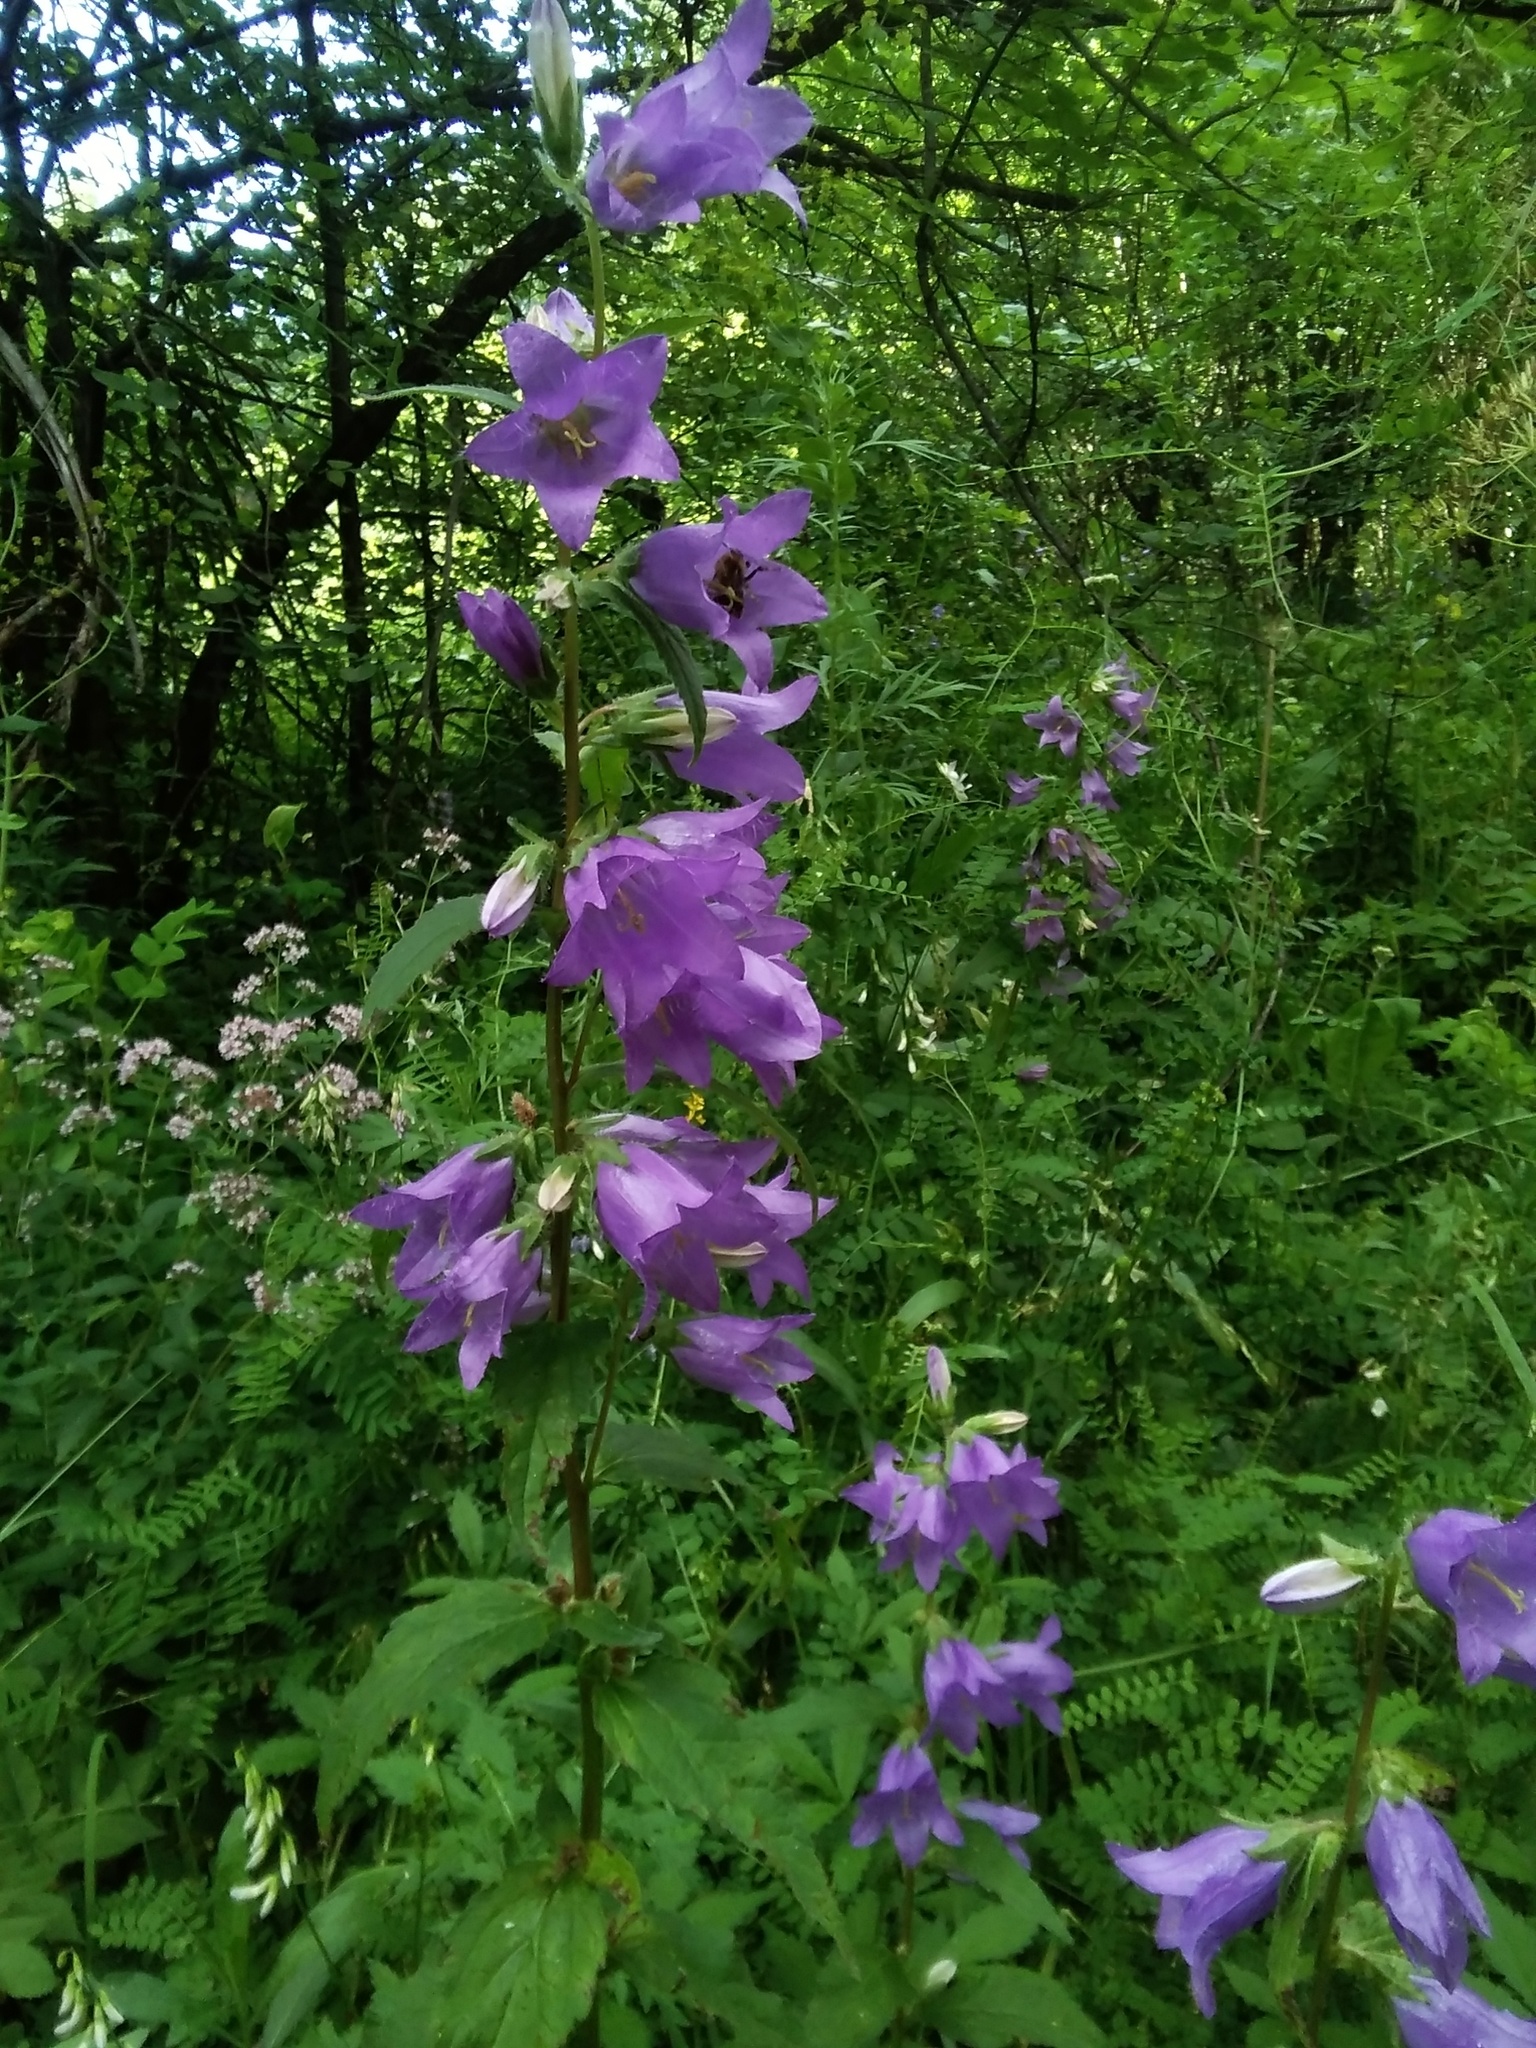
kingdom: Plantae
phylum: Tracheophyta
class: Magnoliopsida
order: Asterales
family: Campanulaceae
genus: Campanula
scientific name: Campanula trachelium
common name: Nettle-leaved bellflower
